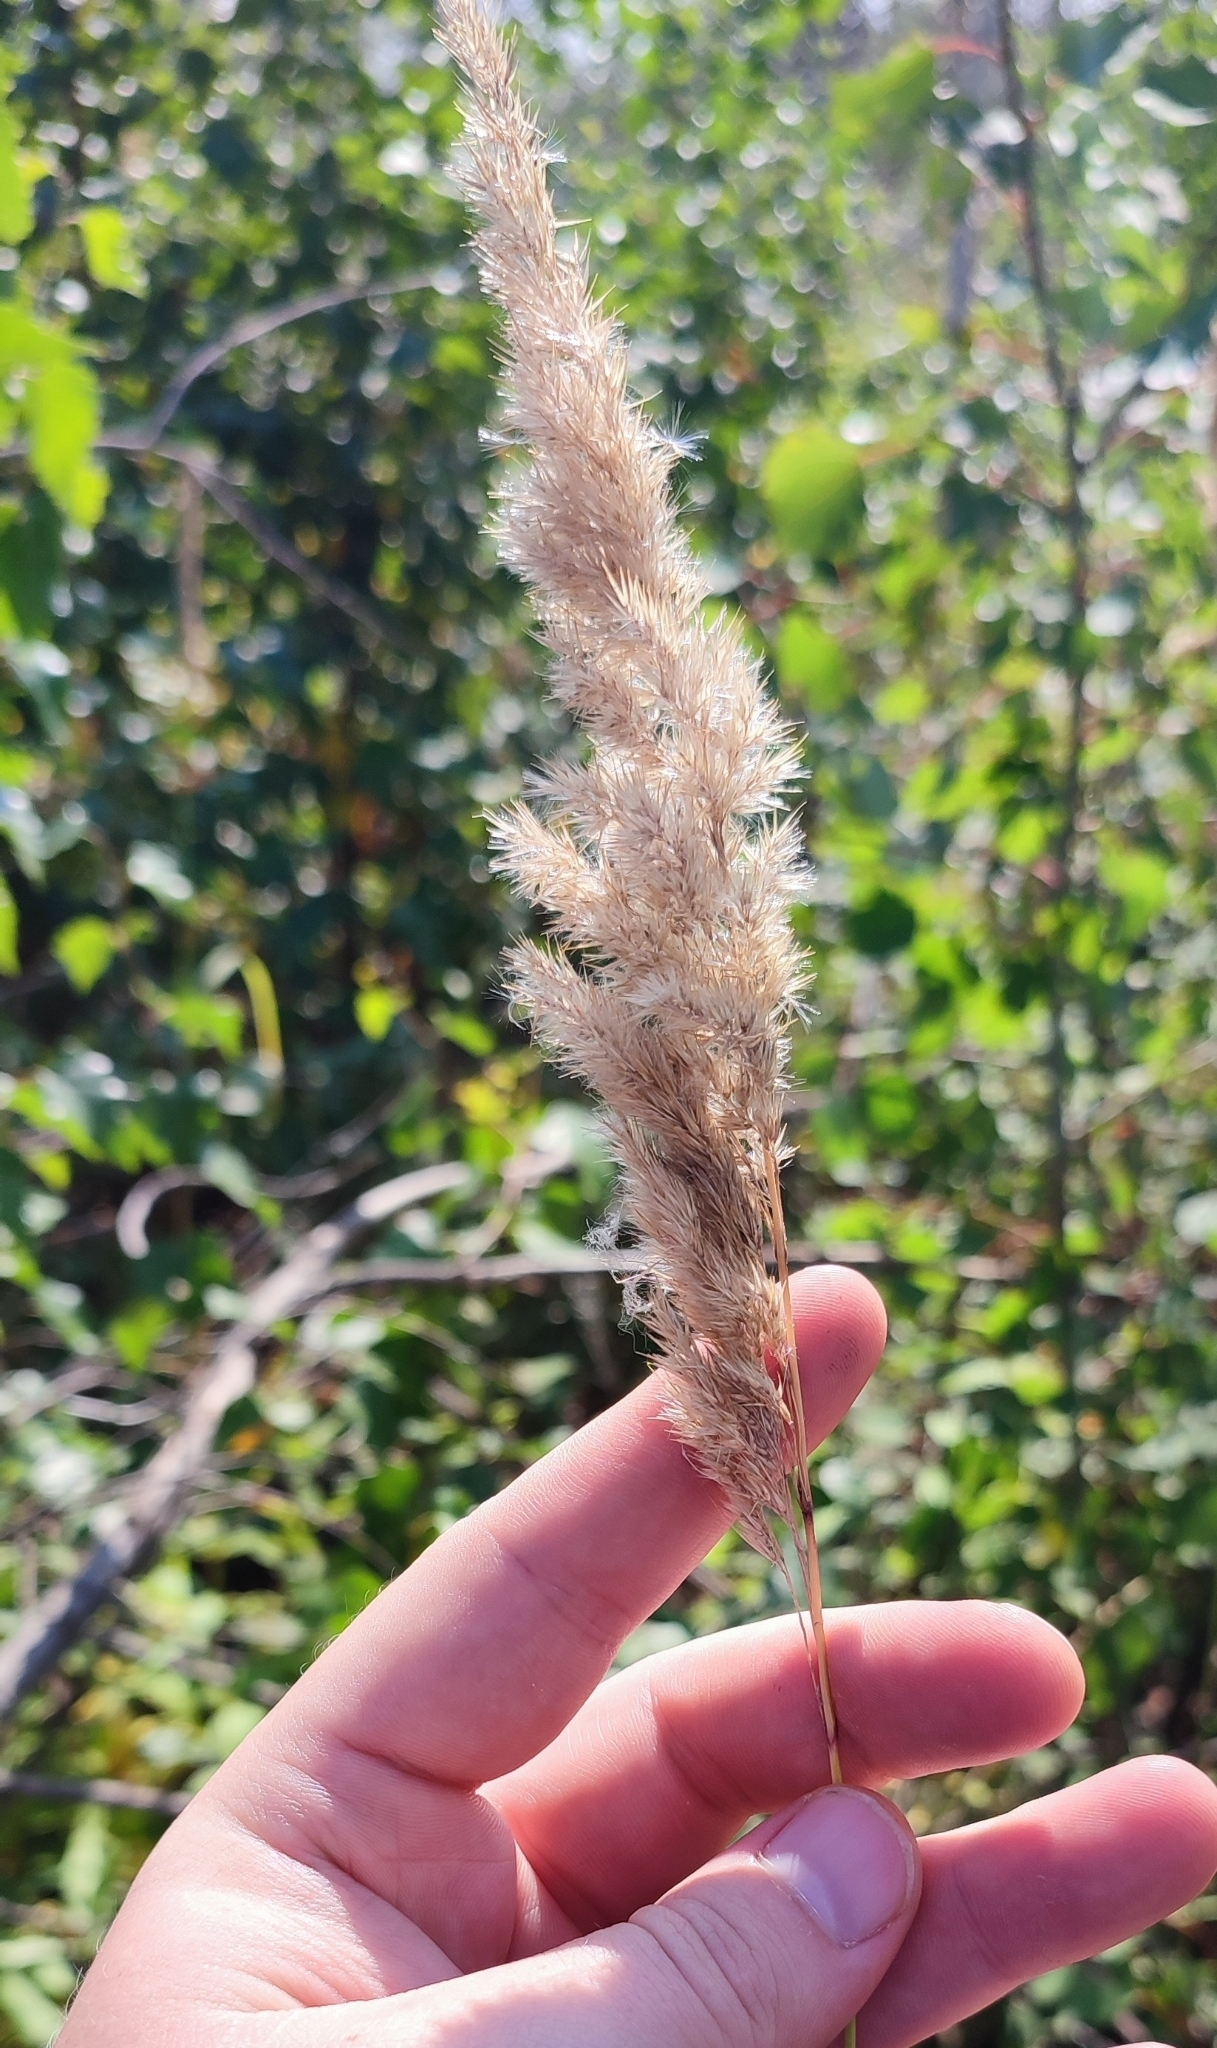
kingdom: Plantae
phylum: Tracheophyta
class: Liliopsida
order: Poales
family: Poaceae
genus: Calamagrostis
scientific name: Calamagrostis epigejos
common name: Wood small-reed
